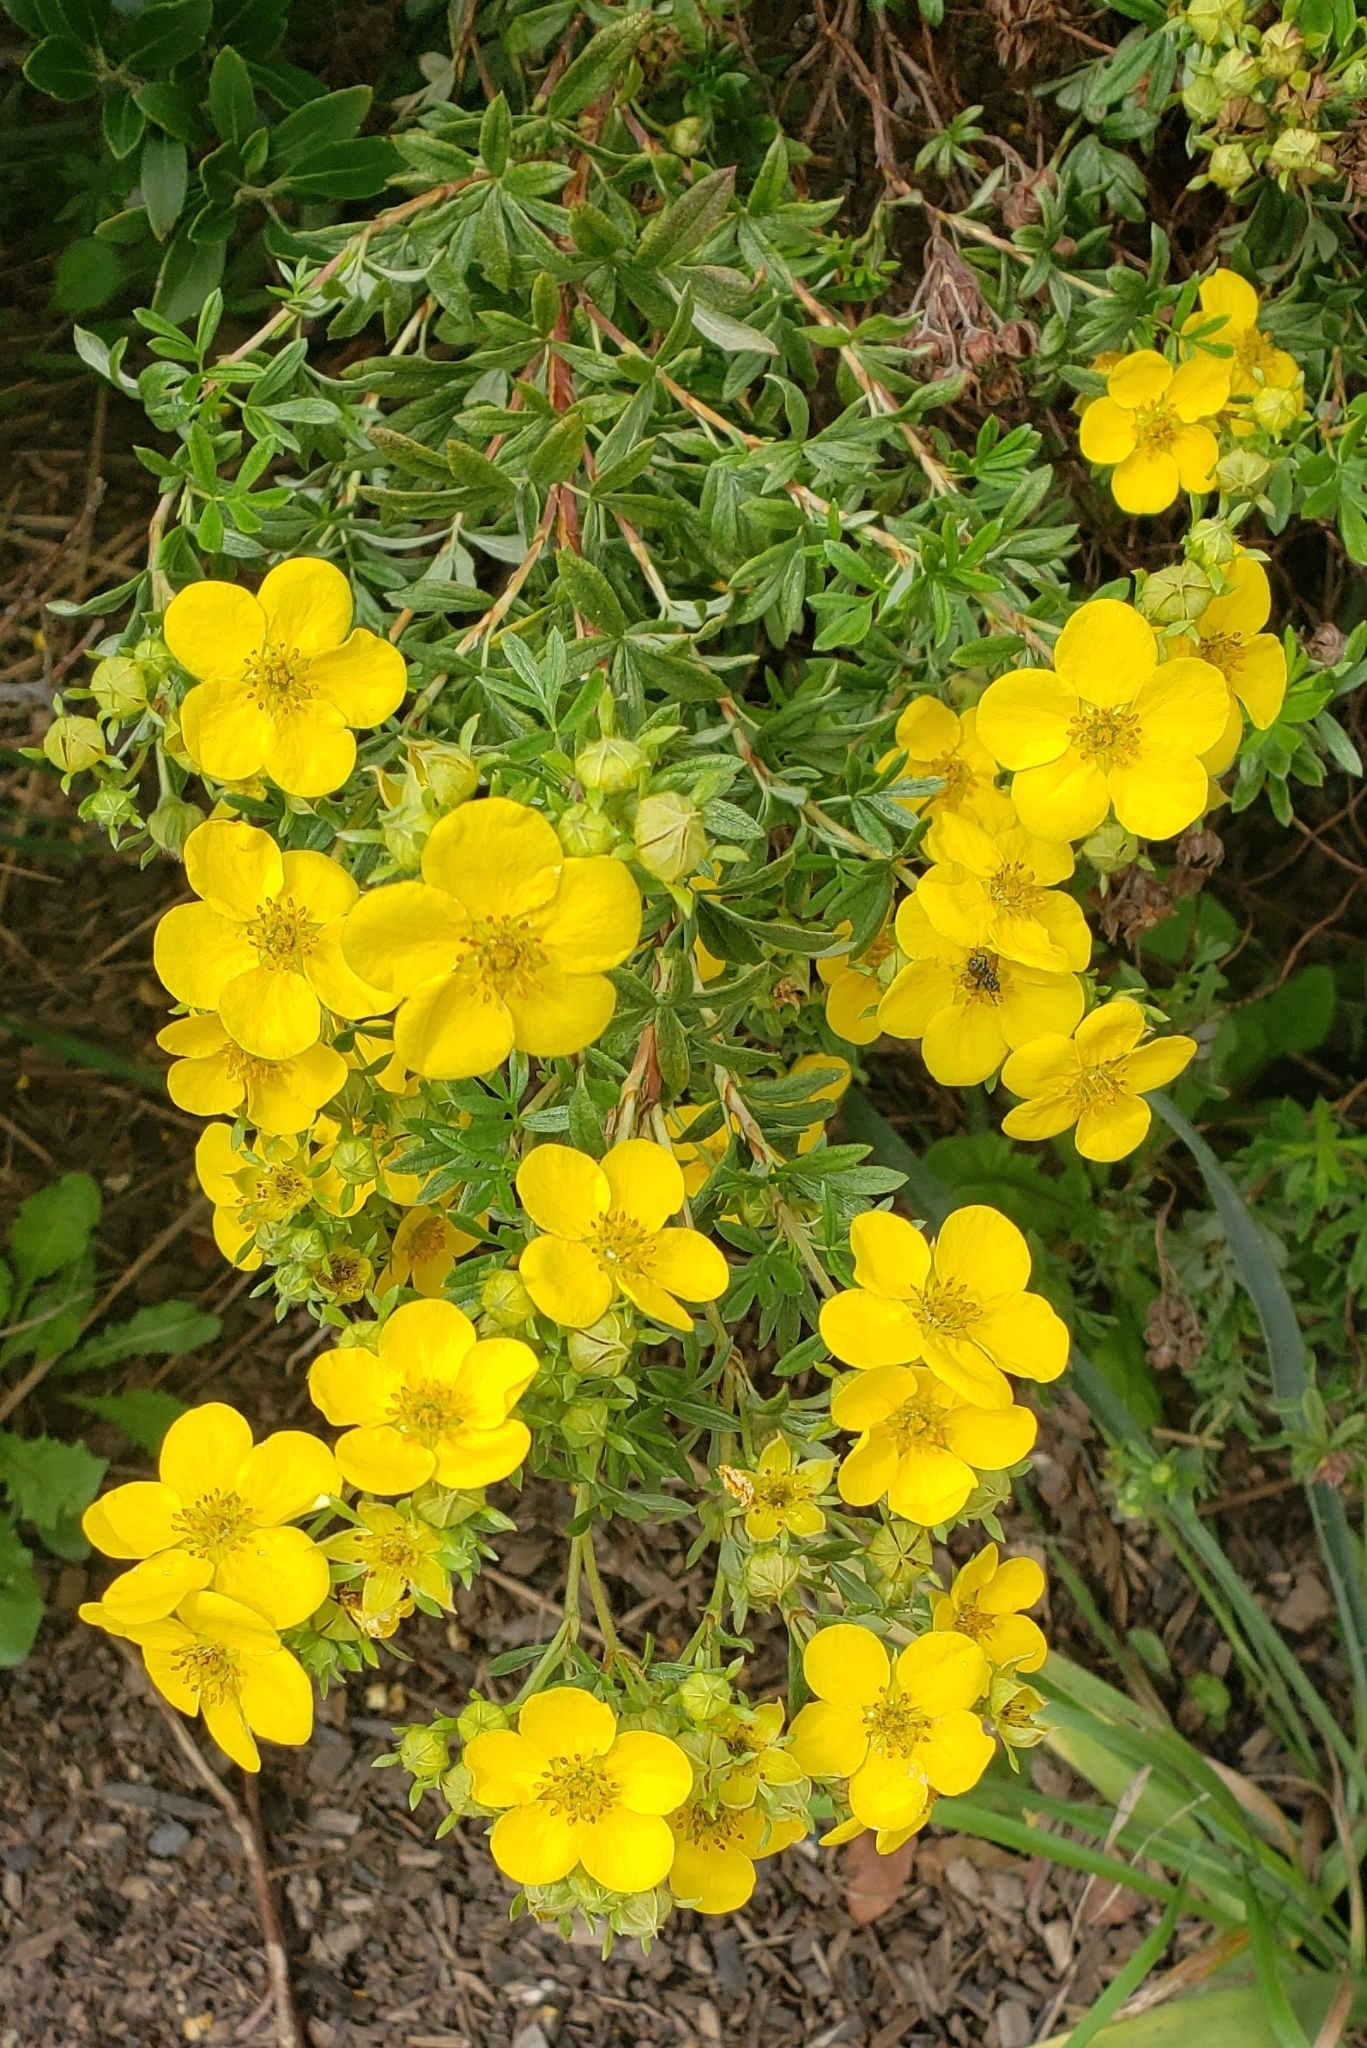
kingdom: Plantae
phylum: Tracheophyta
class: Magnoliopsida
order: Rosales
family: Rosaceae
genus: Dasiphora
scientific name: Dasiphora fruticosa
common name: Shrubby cinquefoil
